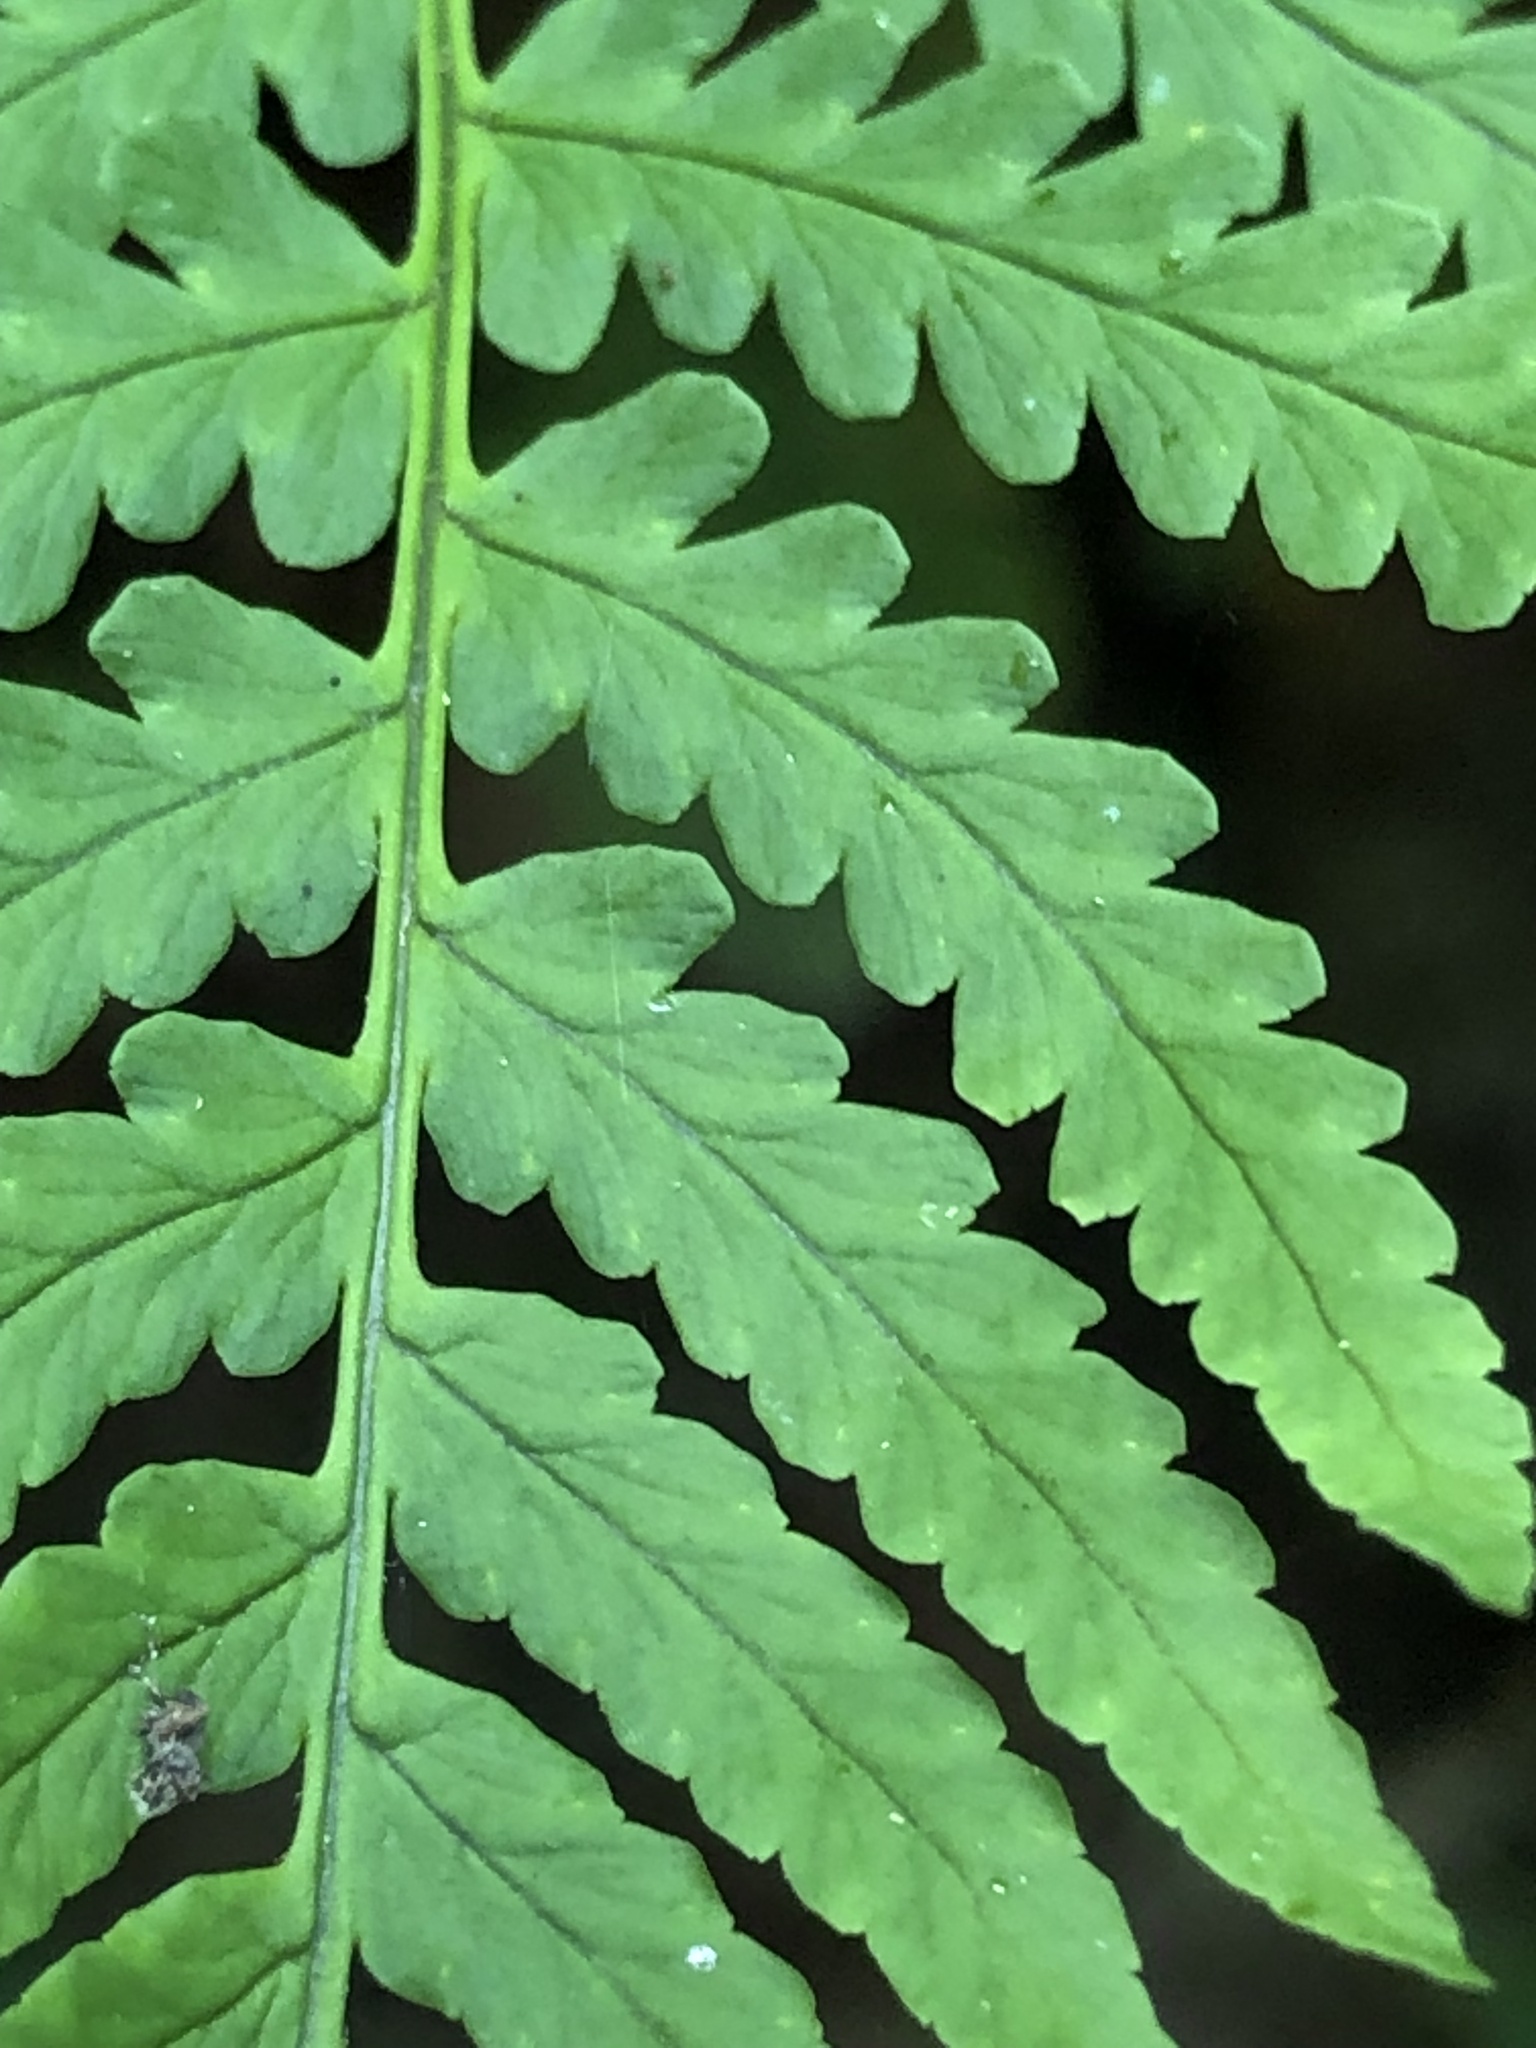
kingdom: Plantae
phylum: Tracheophyta
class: Polypodiopsida
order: Polypodiales
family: Dryopteridaceae
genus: Dryopteris
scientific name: Dryopteris marginalis
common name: Marginal wood fern
